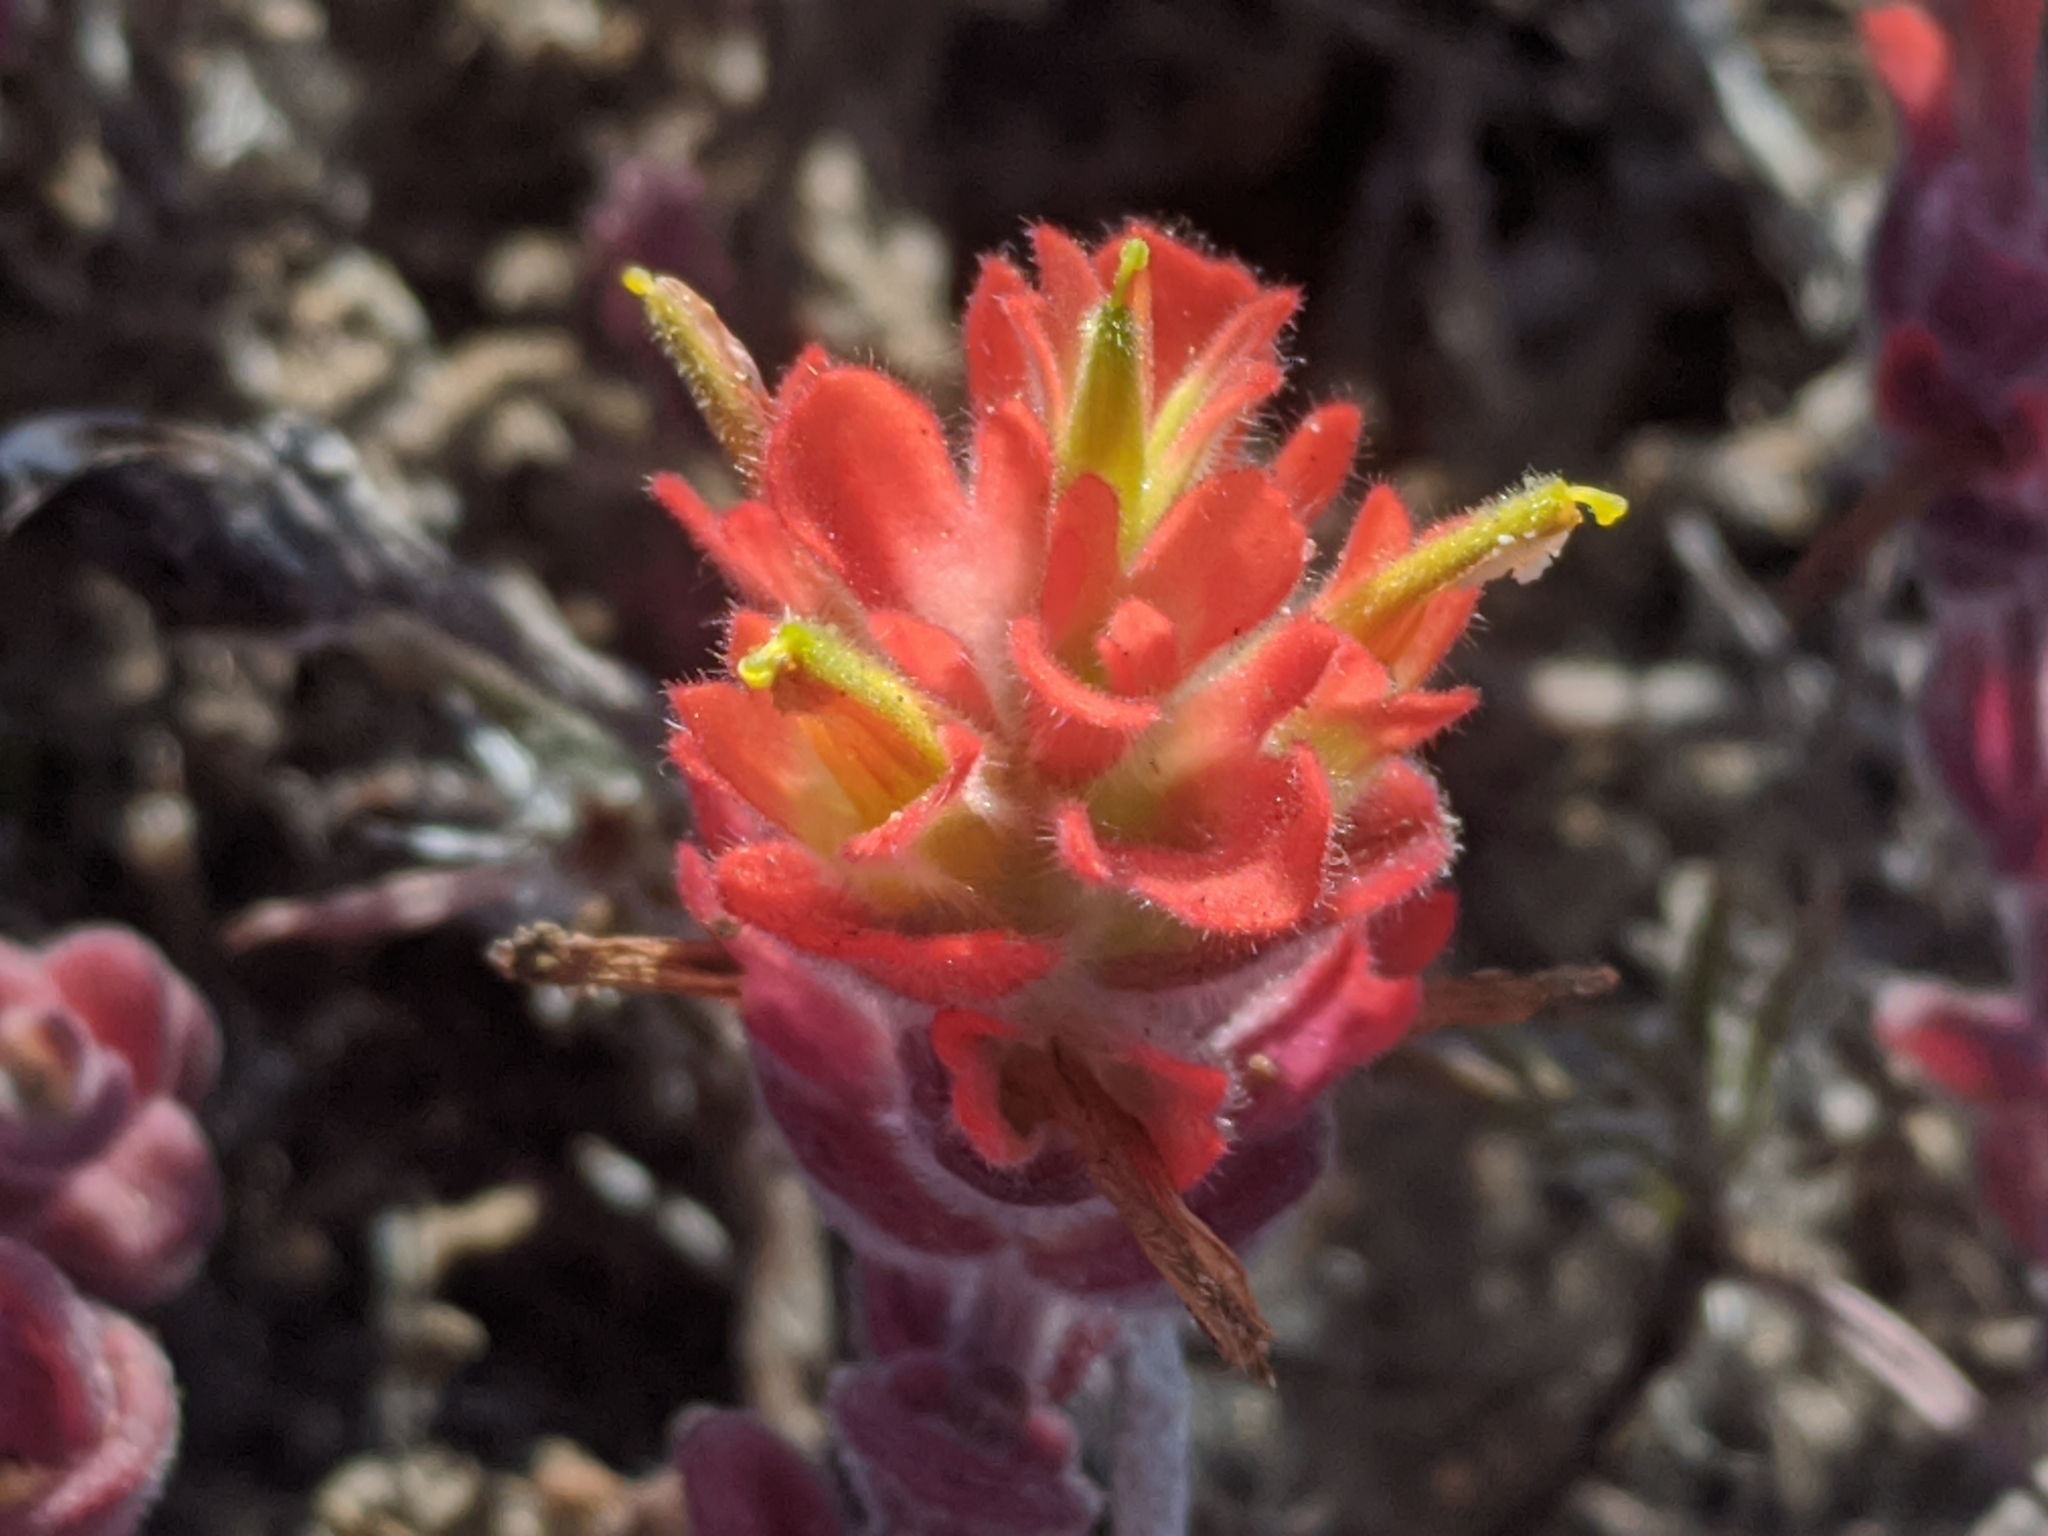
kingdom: Plantae
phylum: Tracheophyta
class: Magnoliopsida
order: Lamiales
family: Orobanchaceae
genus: Castilleja
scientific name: Castilleja latifolia
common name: Monterey indian paintbrush
